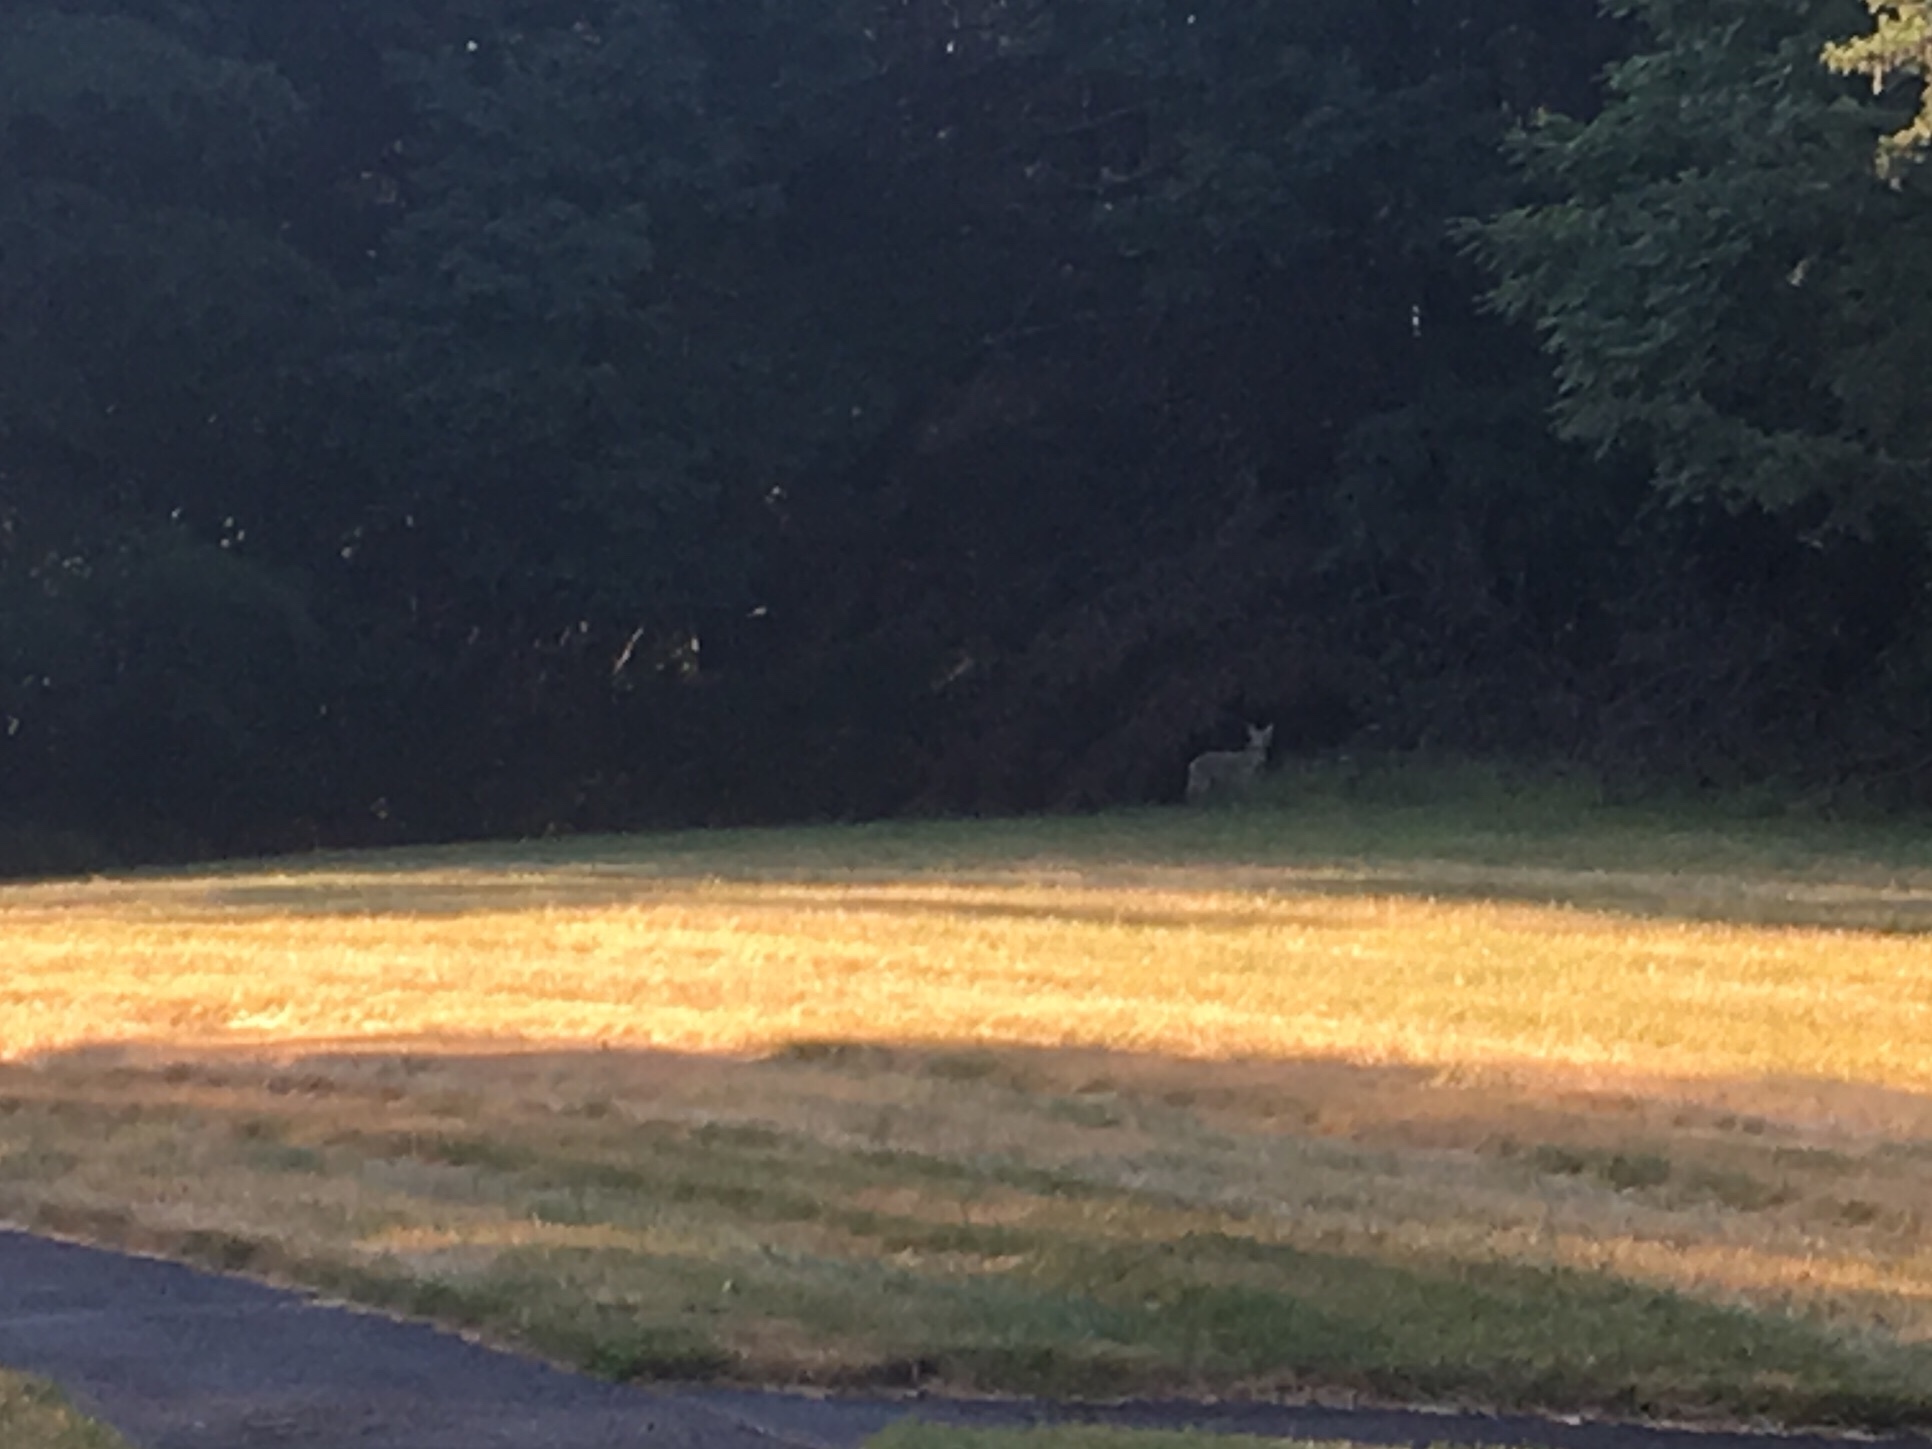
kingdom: Animalia
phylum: Chordata
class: Mammalia
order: Carnivora
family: Canidae
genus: Canis
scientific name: Canis latrans
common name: Coyote
